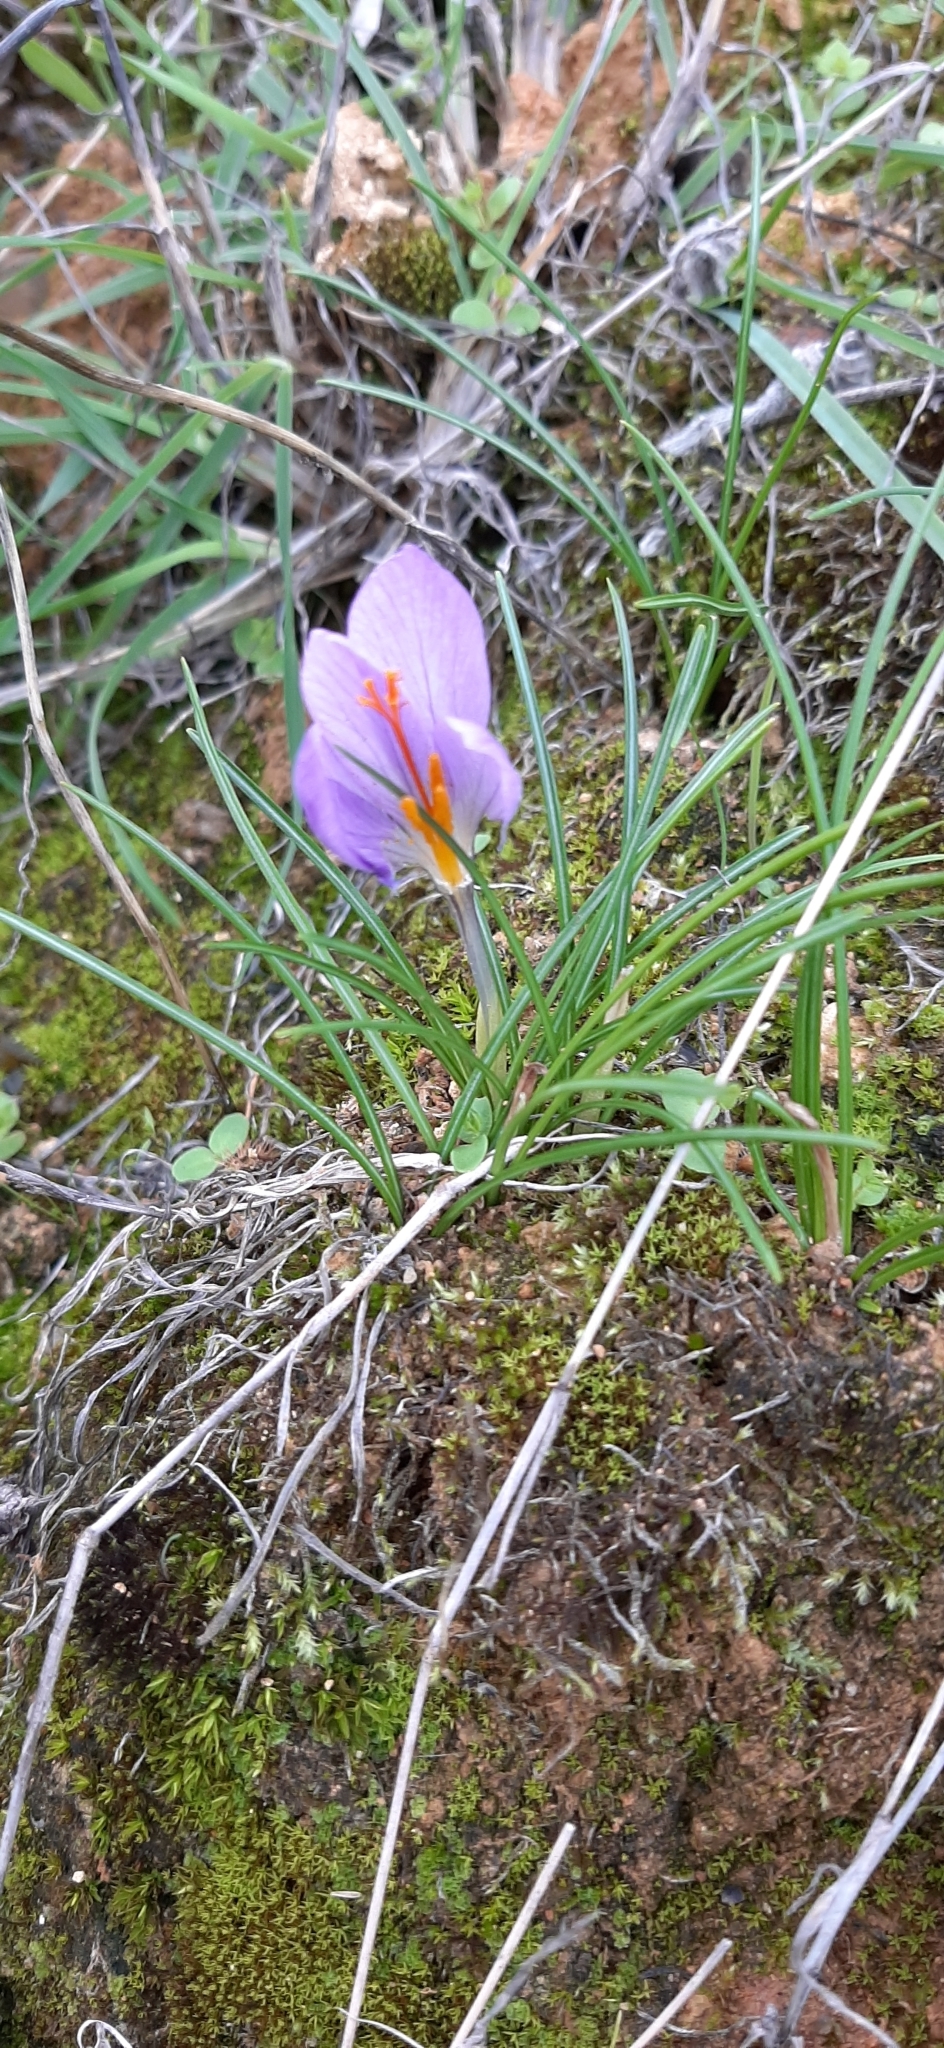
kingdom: Plantae
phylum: Tracheophyta
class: Liliopsida
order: Asparagales
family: Iridaceae
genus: Crocus
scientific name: Crocus serotinus
